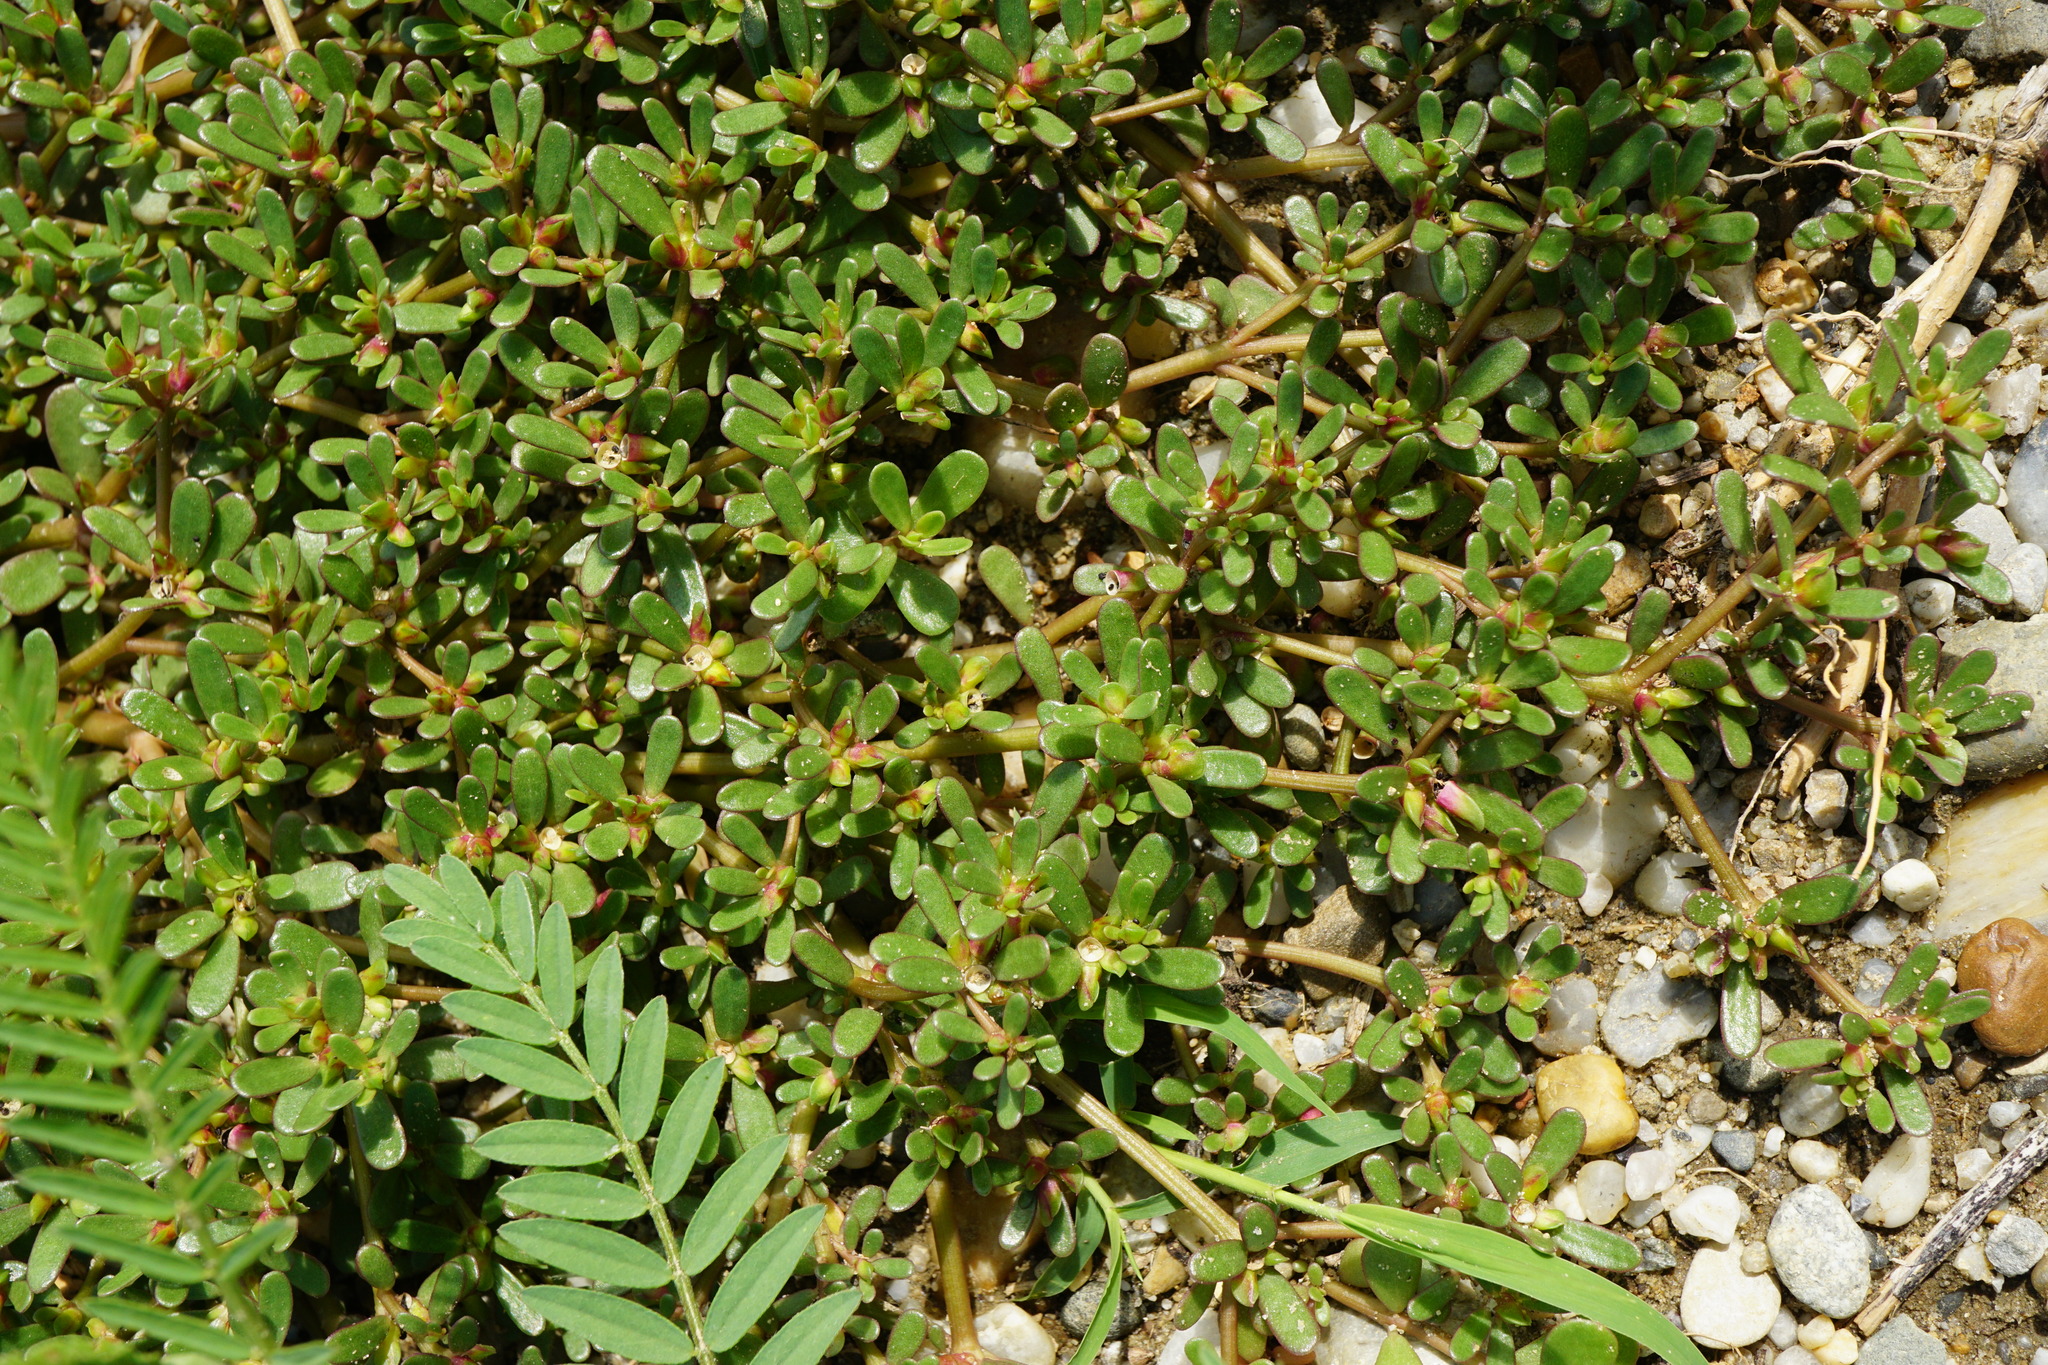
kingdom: Plantae
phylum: Tracheophyta
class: Magnoliopsida
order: Caryophyllales
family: Portulacaceae
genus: Portulaca
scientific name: Portulaca oleracea
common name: Common purslane
